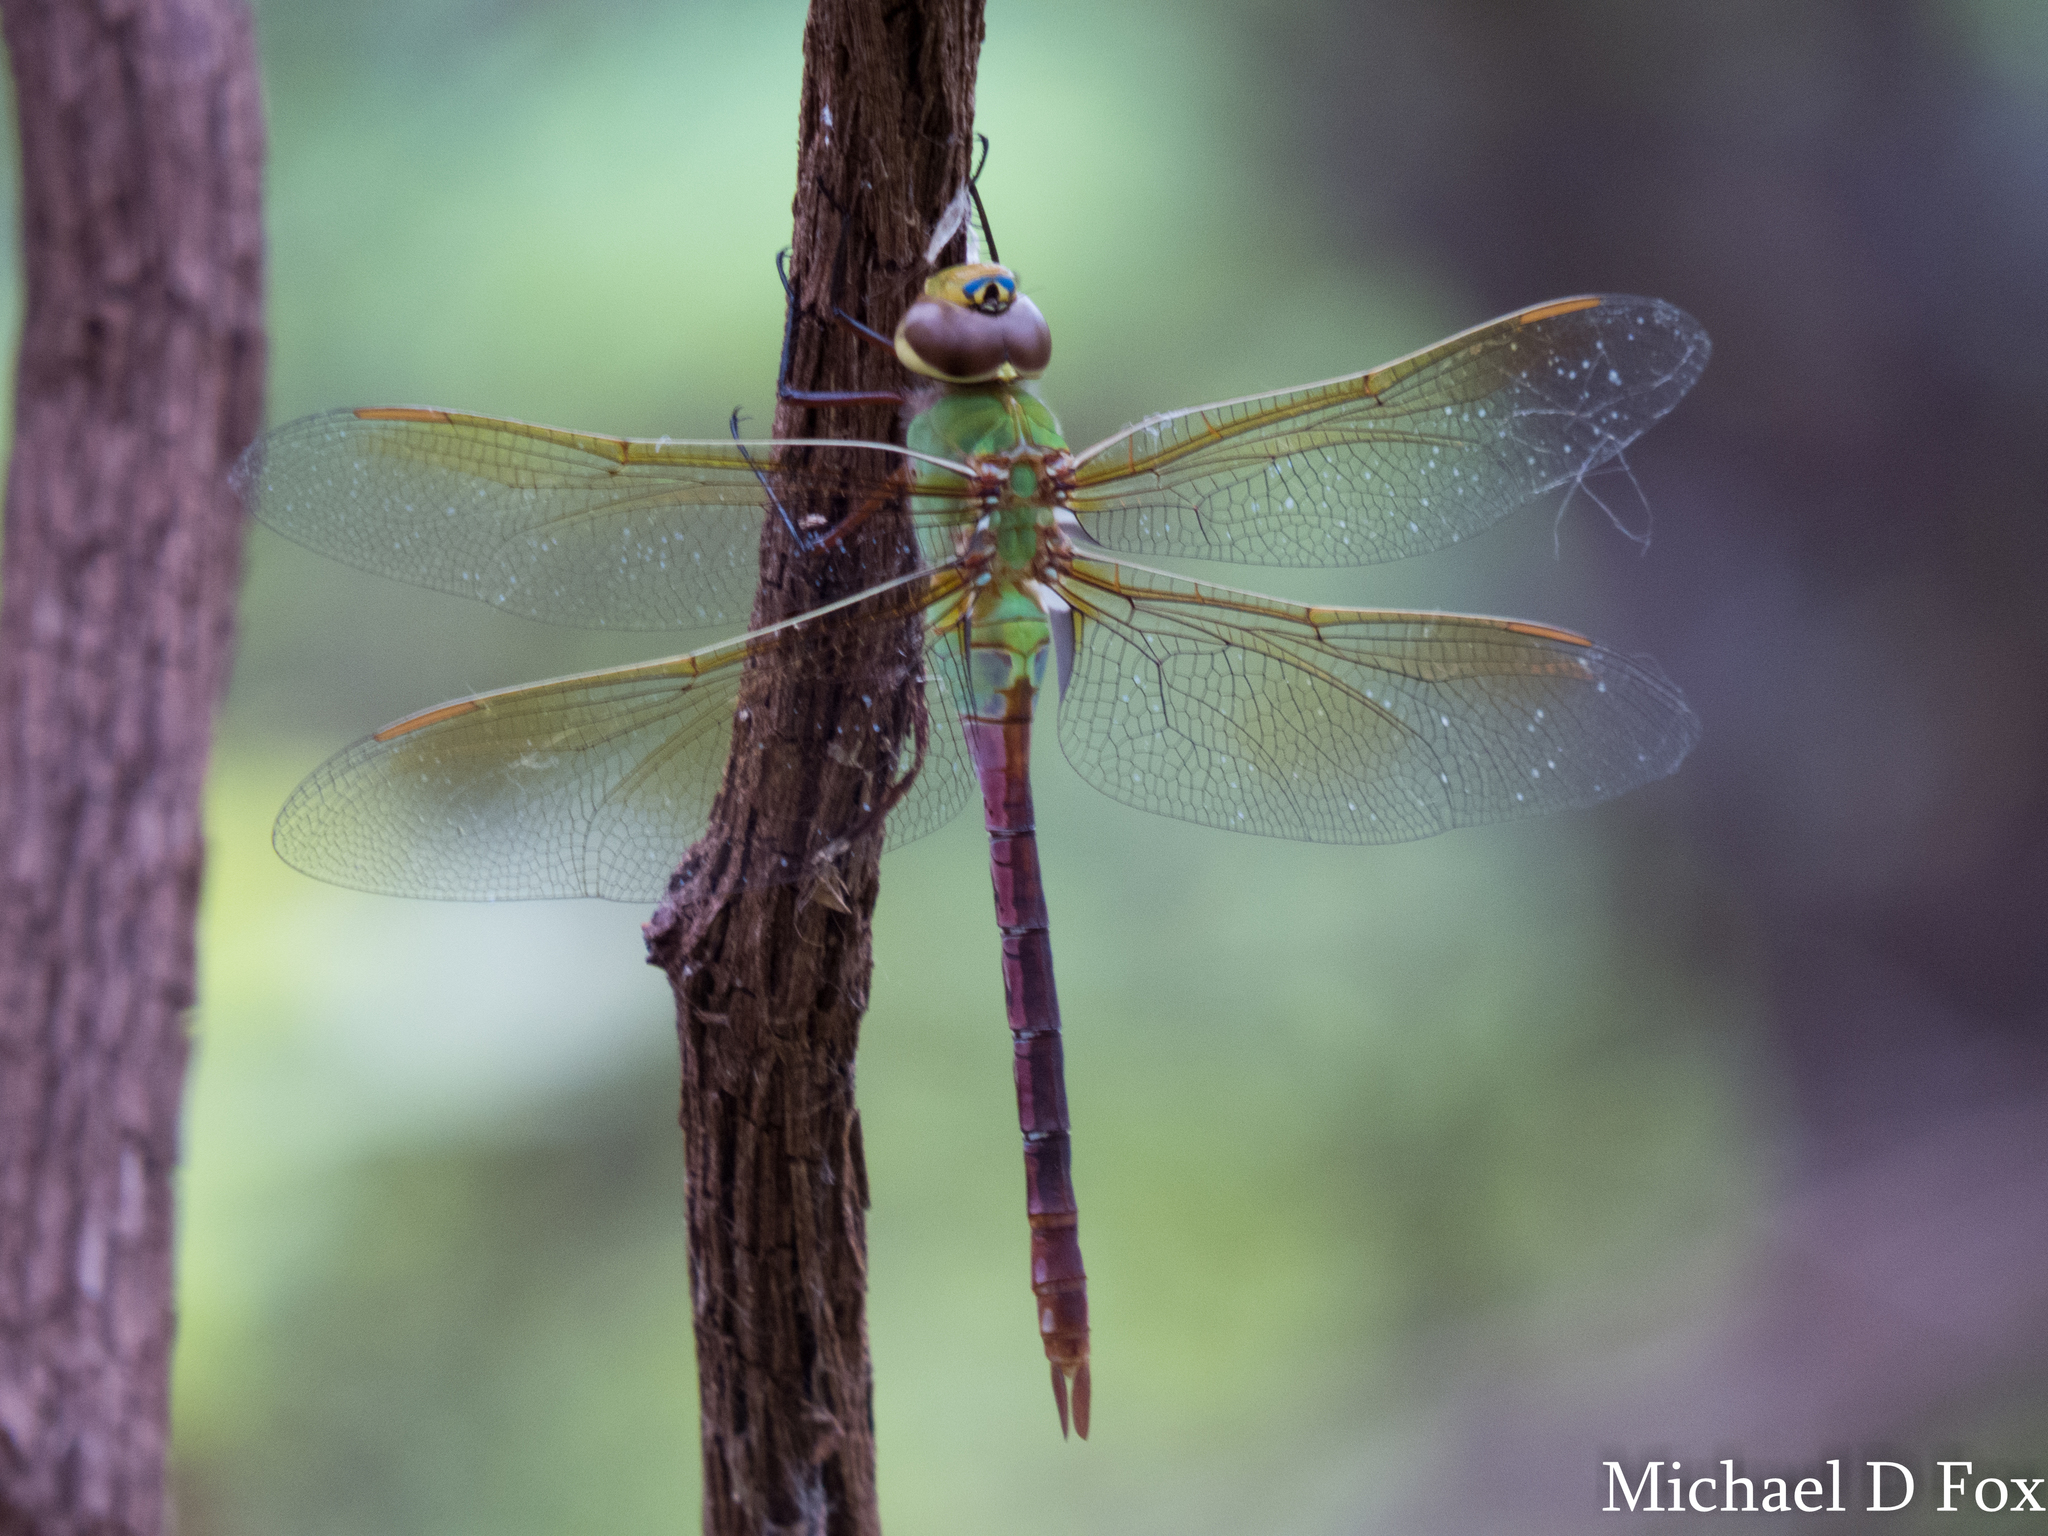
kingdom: Animalia
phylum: Arthropoda
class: Insecta
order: Odonata
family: Aeshnidae
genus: Anax
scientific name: Anax junius
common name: Common green darner
